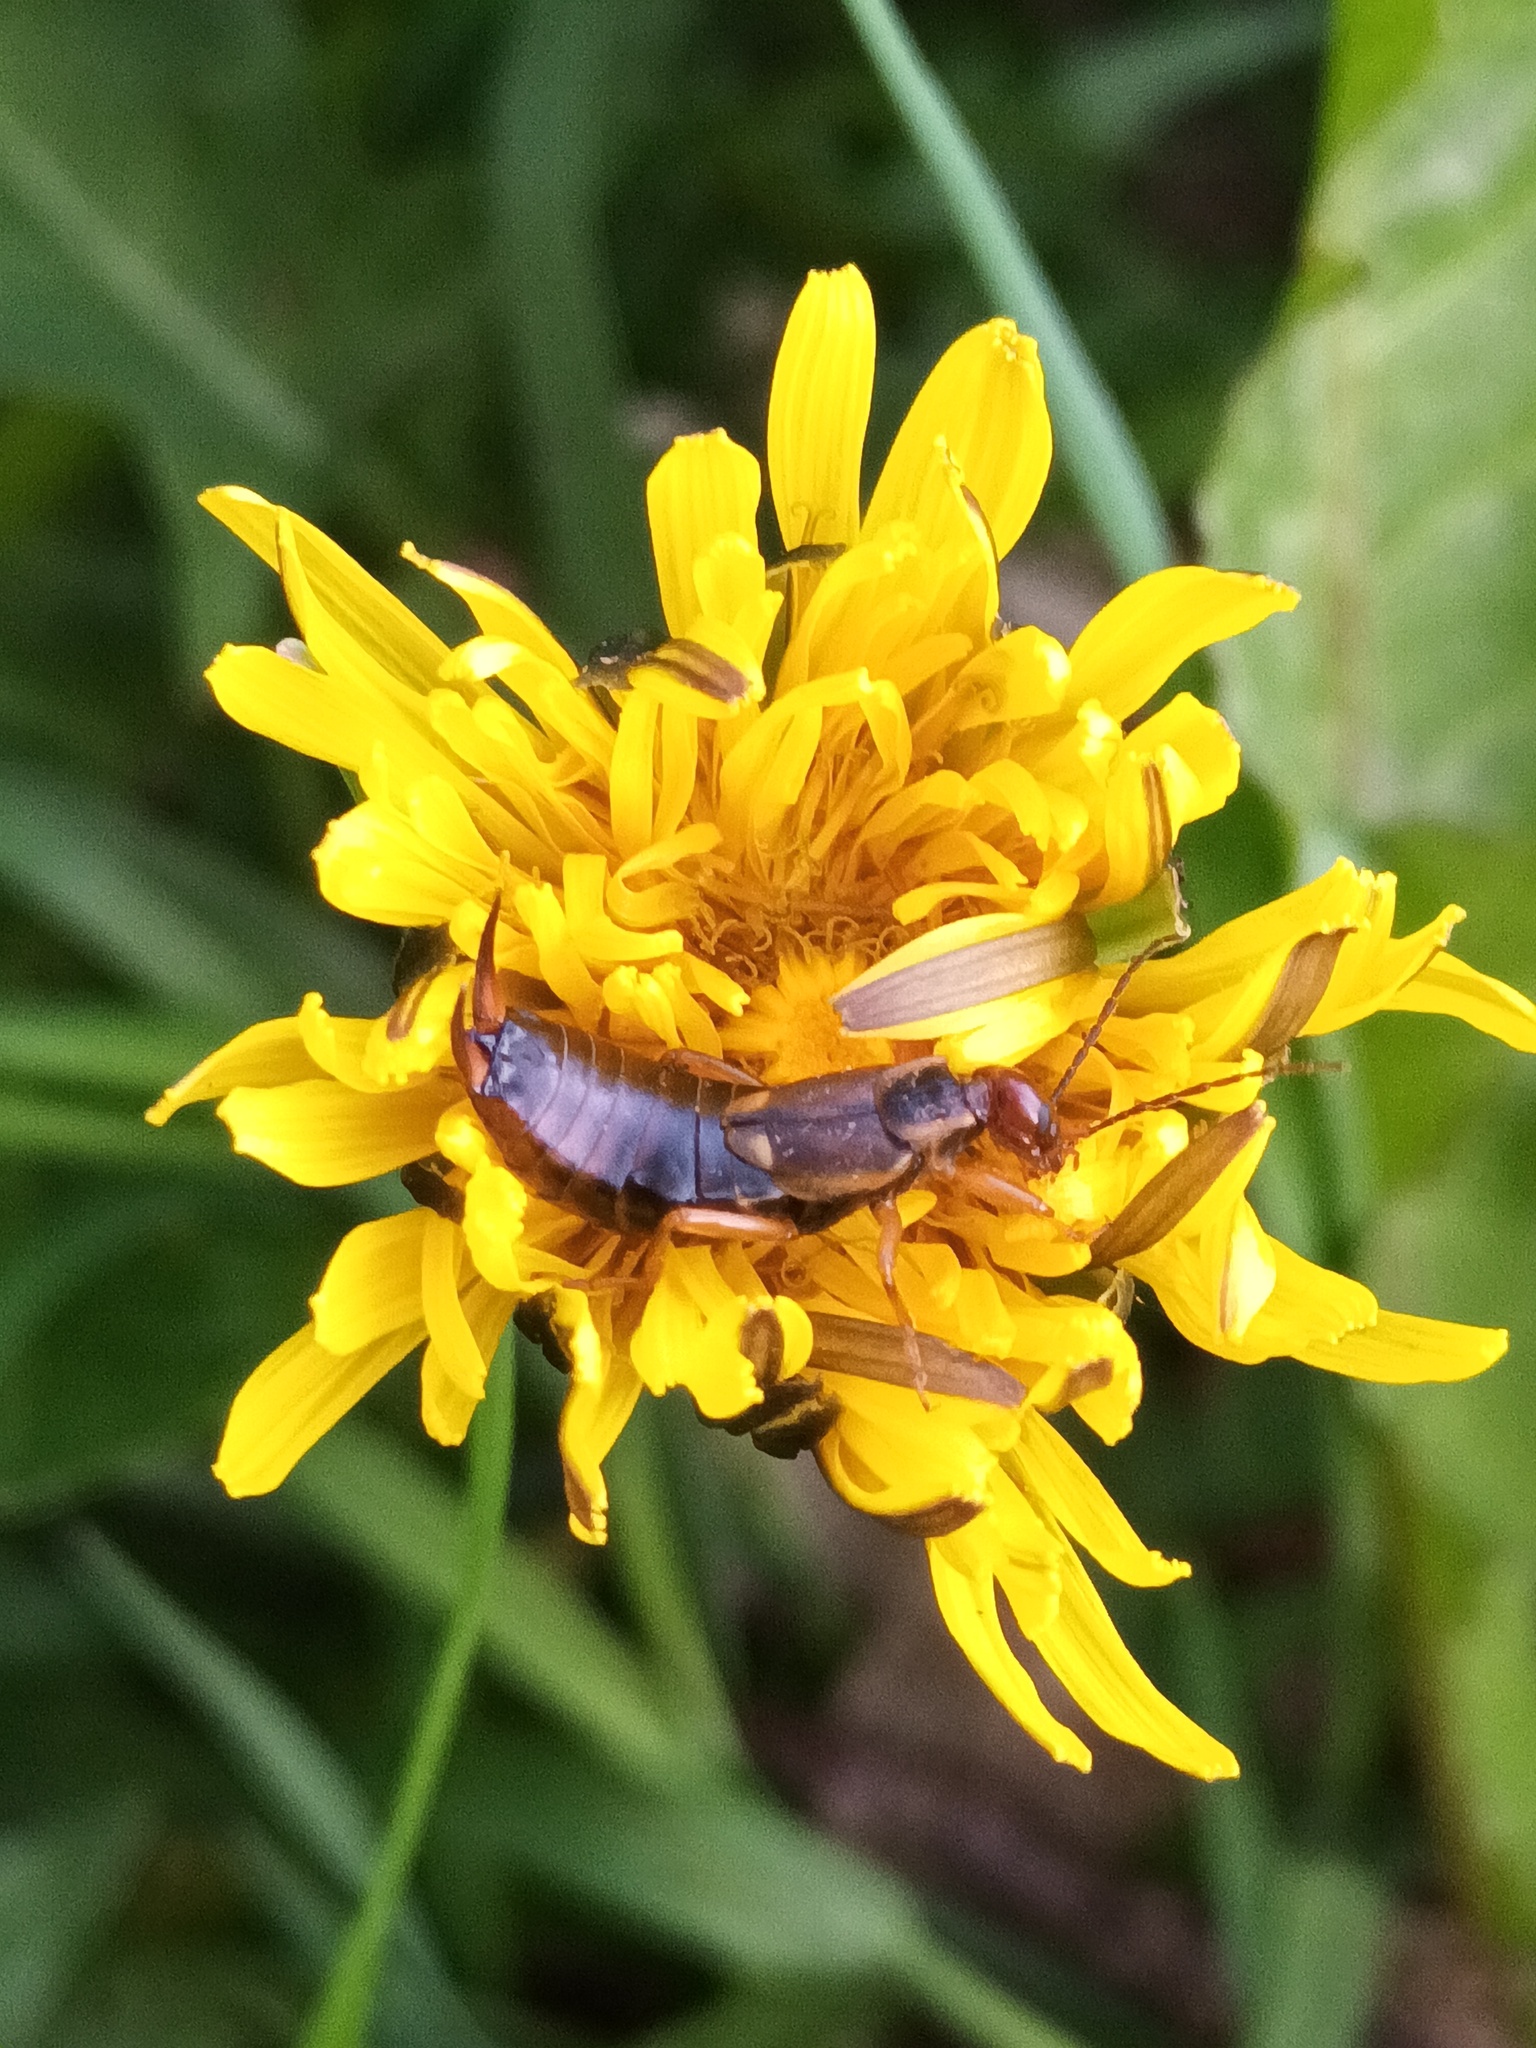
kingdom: Animalia
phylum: Arthropoda
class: Insecta
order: Dermaptera
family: Forficulidae
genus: Forficula
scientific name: Forficula
